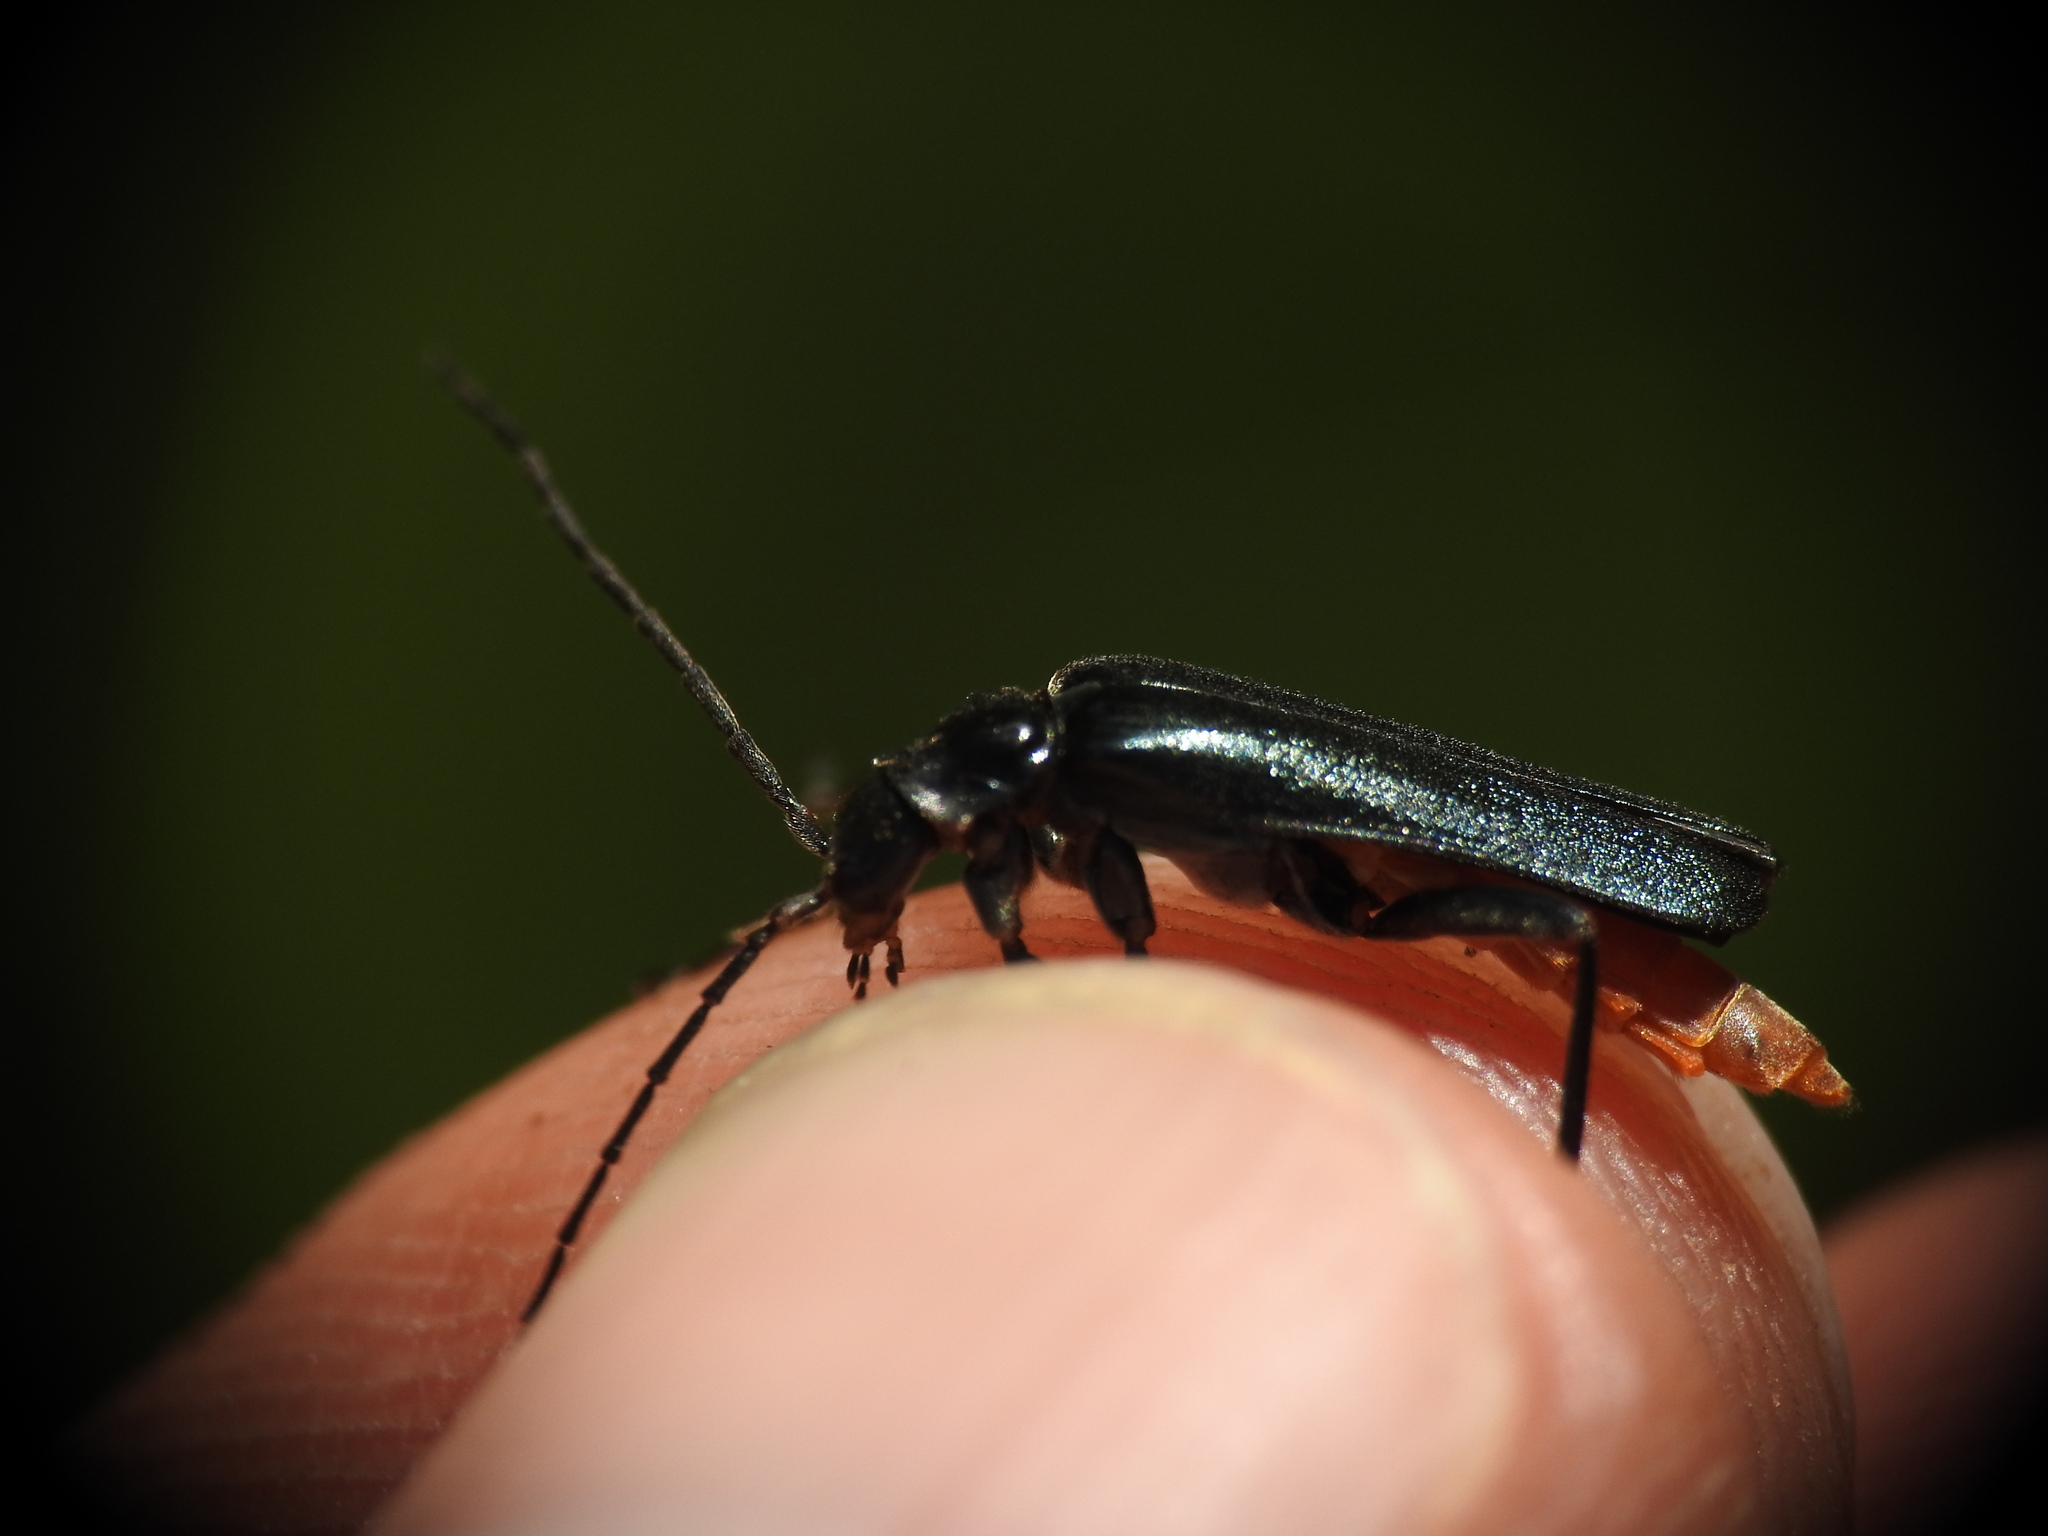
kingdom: Animalia
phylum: Arthropoda
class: Insecta
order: Coleoptera
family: Cantharidae
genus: Ancistronycha
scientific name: Ancistronycha abdominalis
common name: Blue soldier beetle
